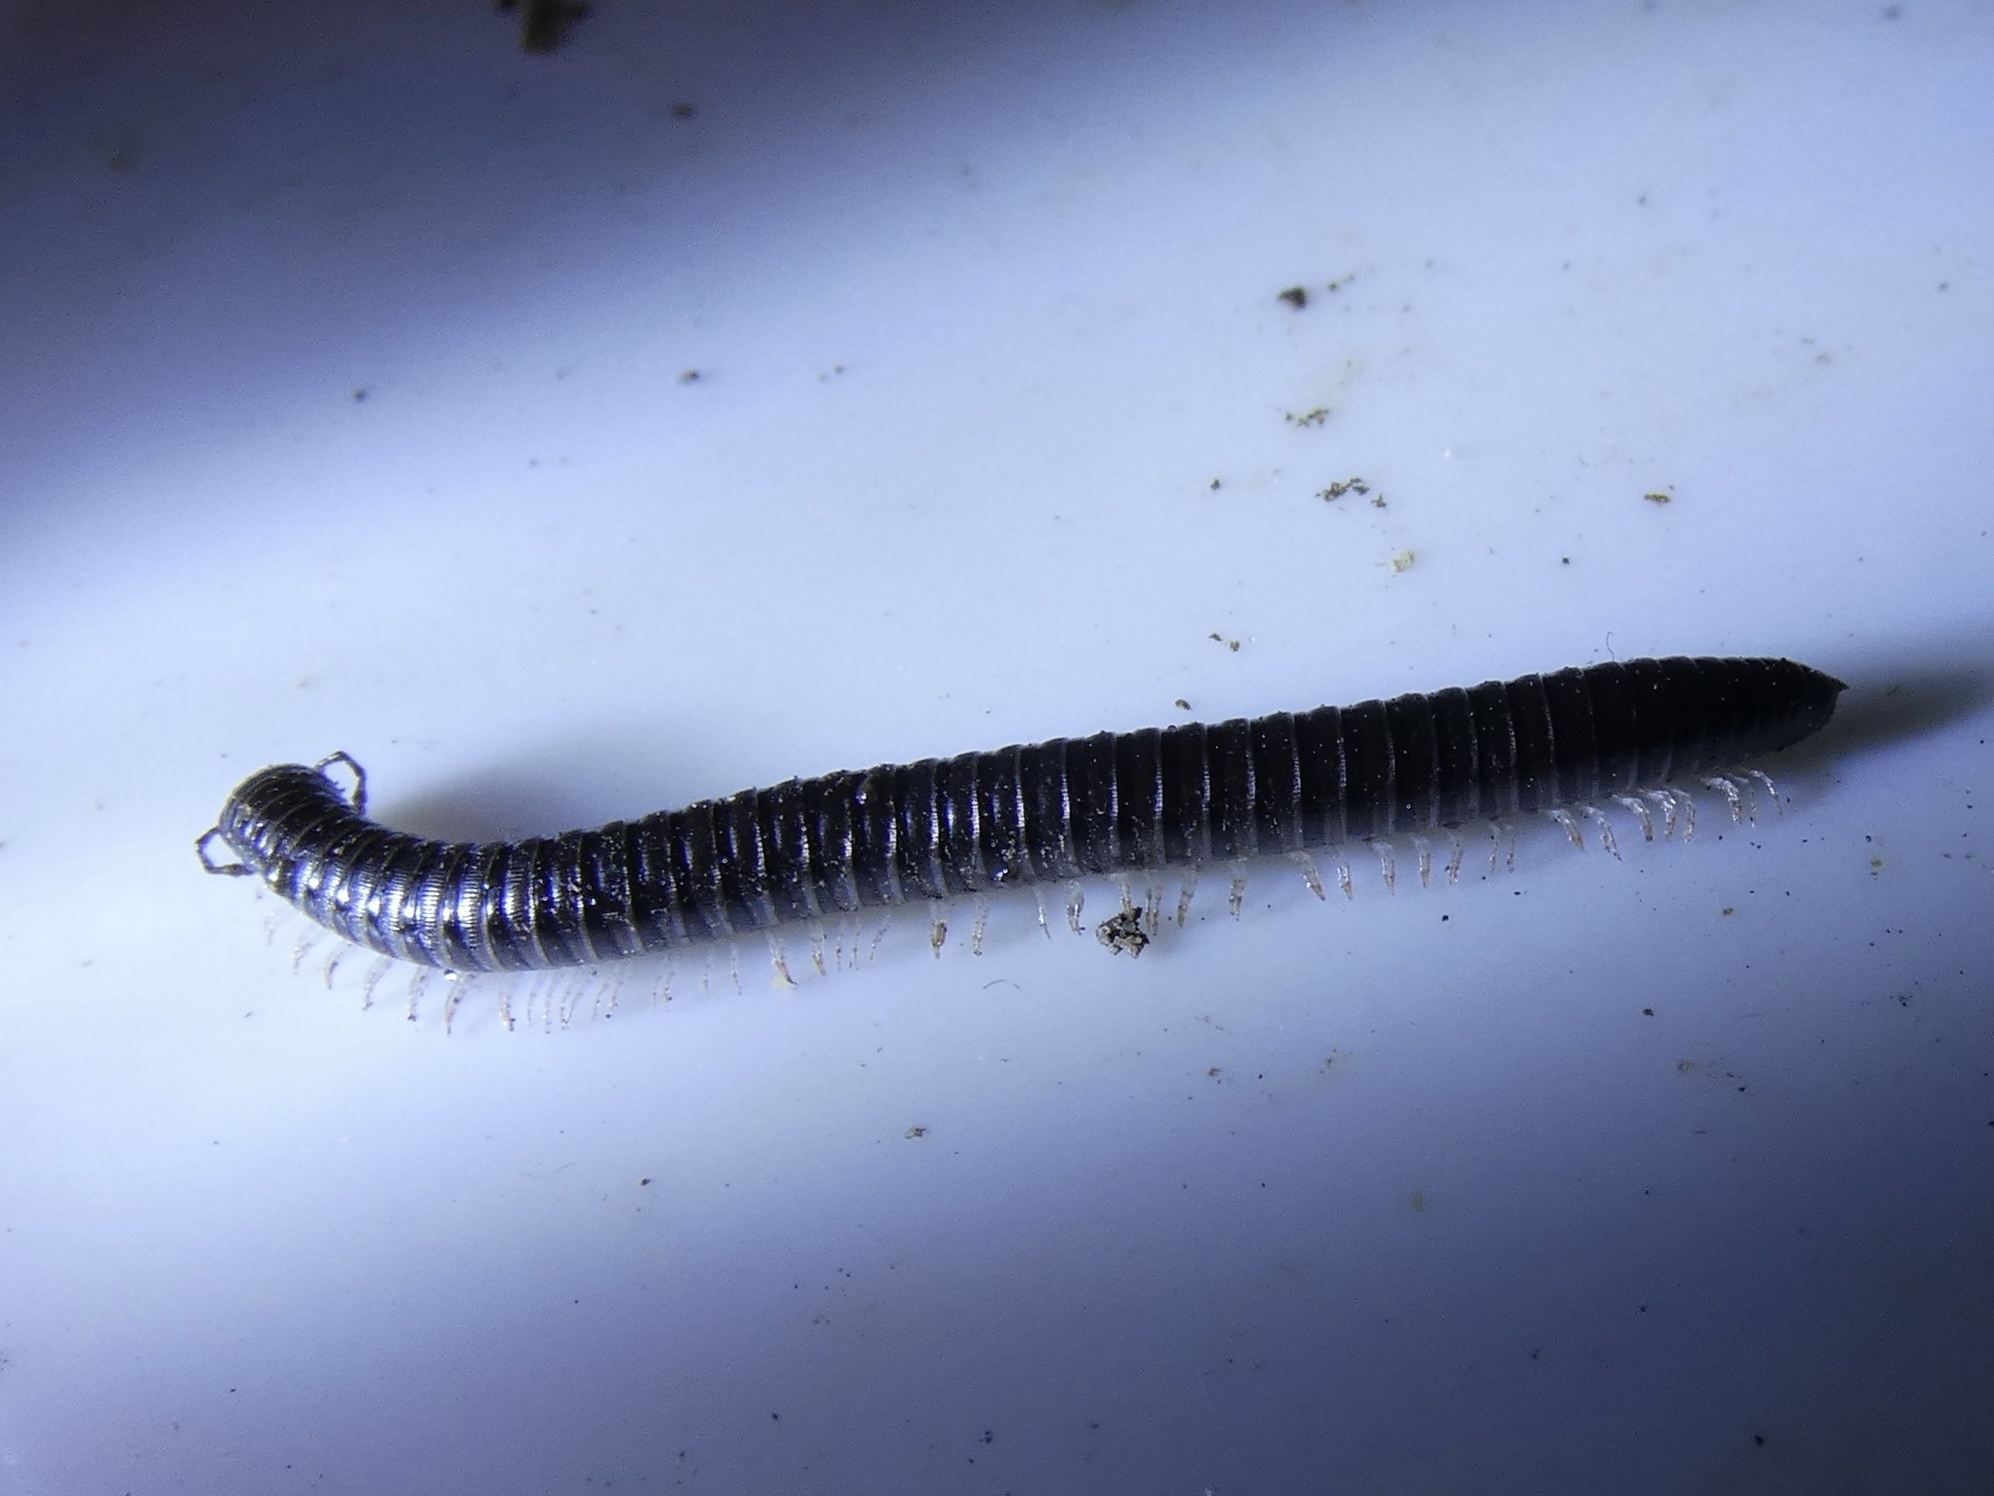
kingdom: Animalia
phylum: Arthropoda
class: Diplopoda
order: Julida
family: Julidae
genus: Tachypodoiulus
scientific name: Tachypodoiulus niger
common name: White-legged snake millipede
